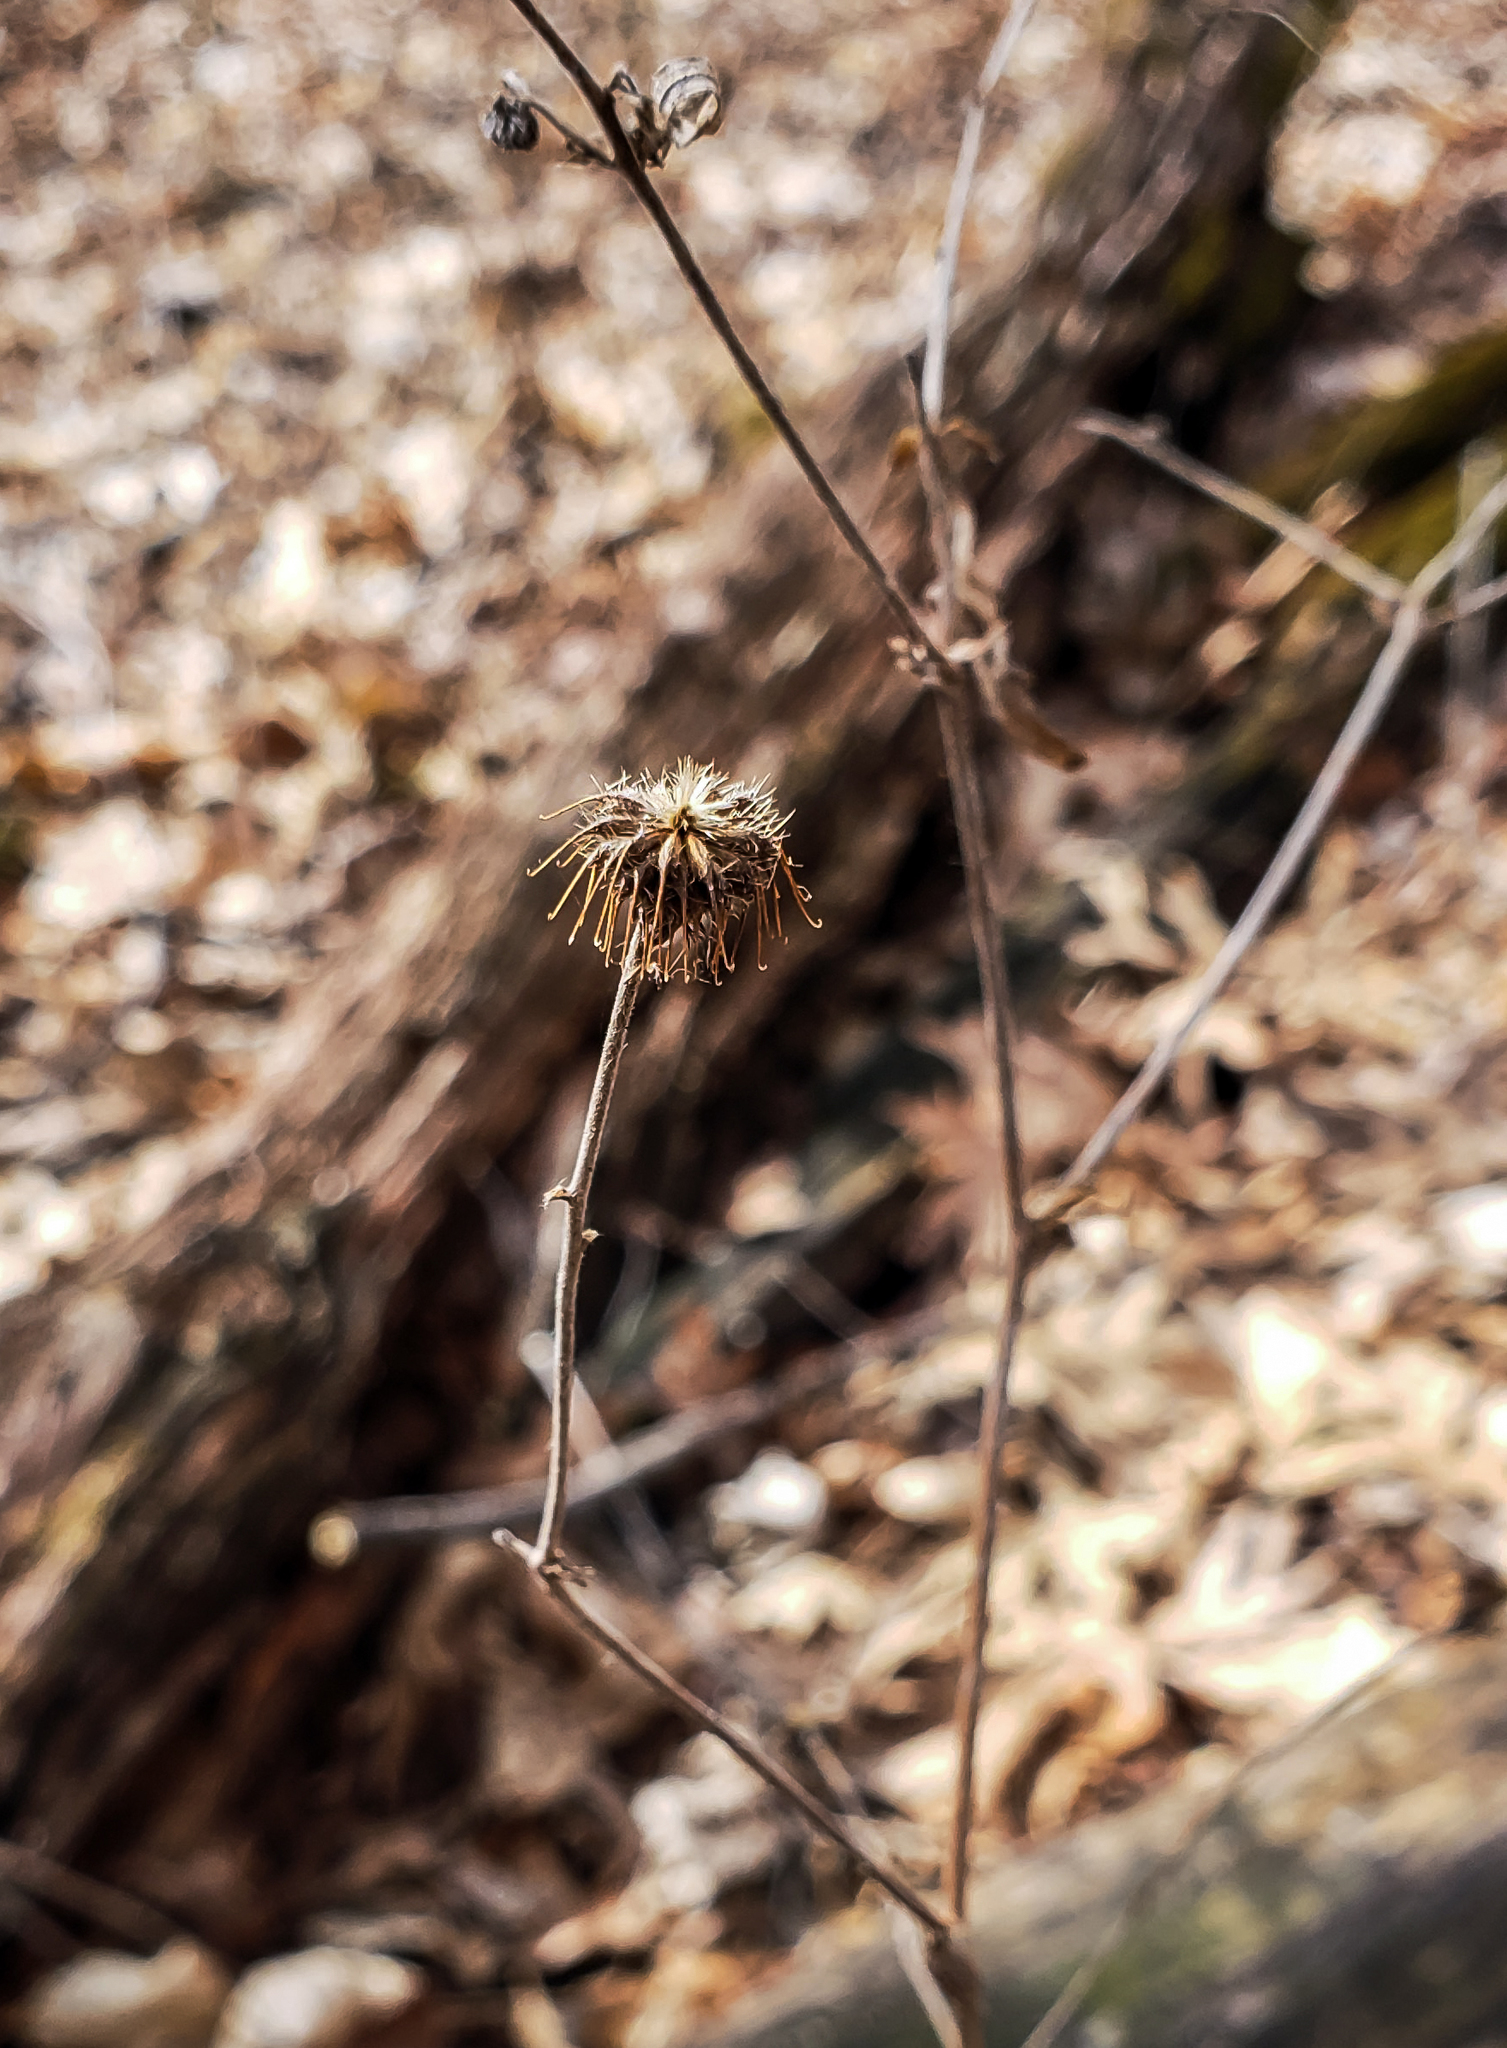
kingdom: Plantae
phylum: Tracheophyta
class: Magnoliopsida
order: Rosales
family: Rosaceae
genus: Geum
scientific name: Geum
